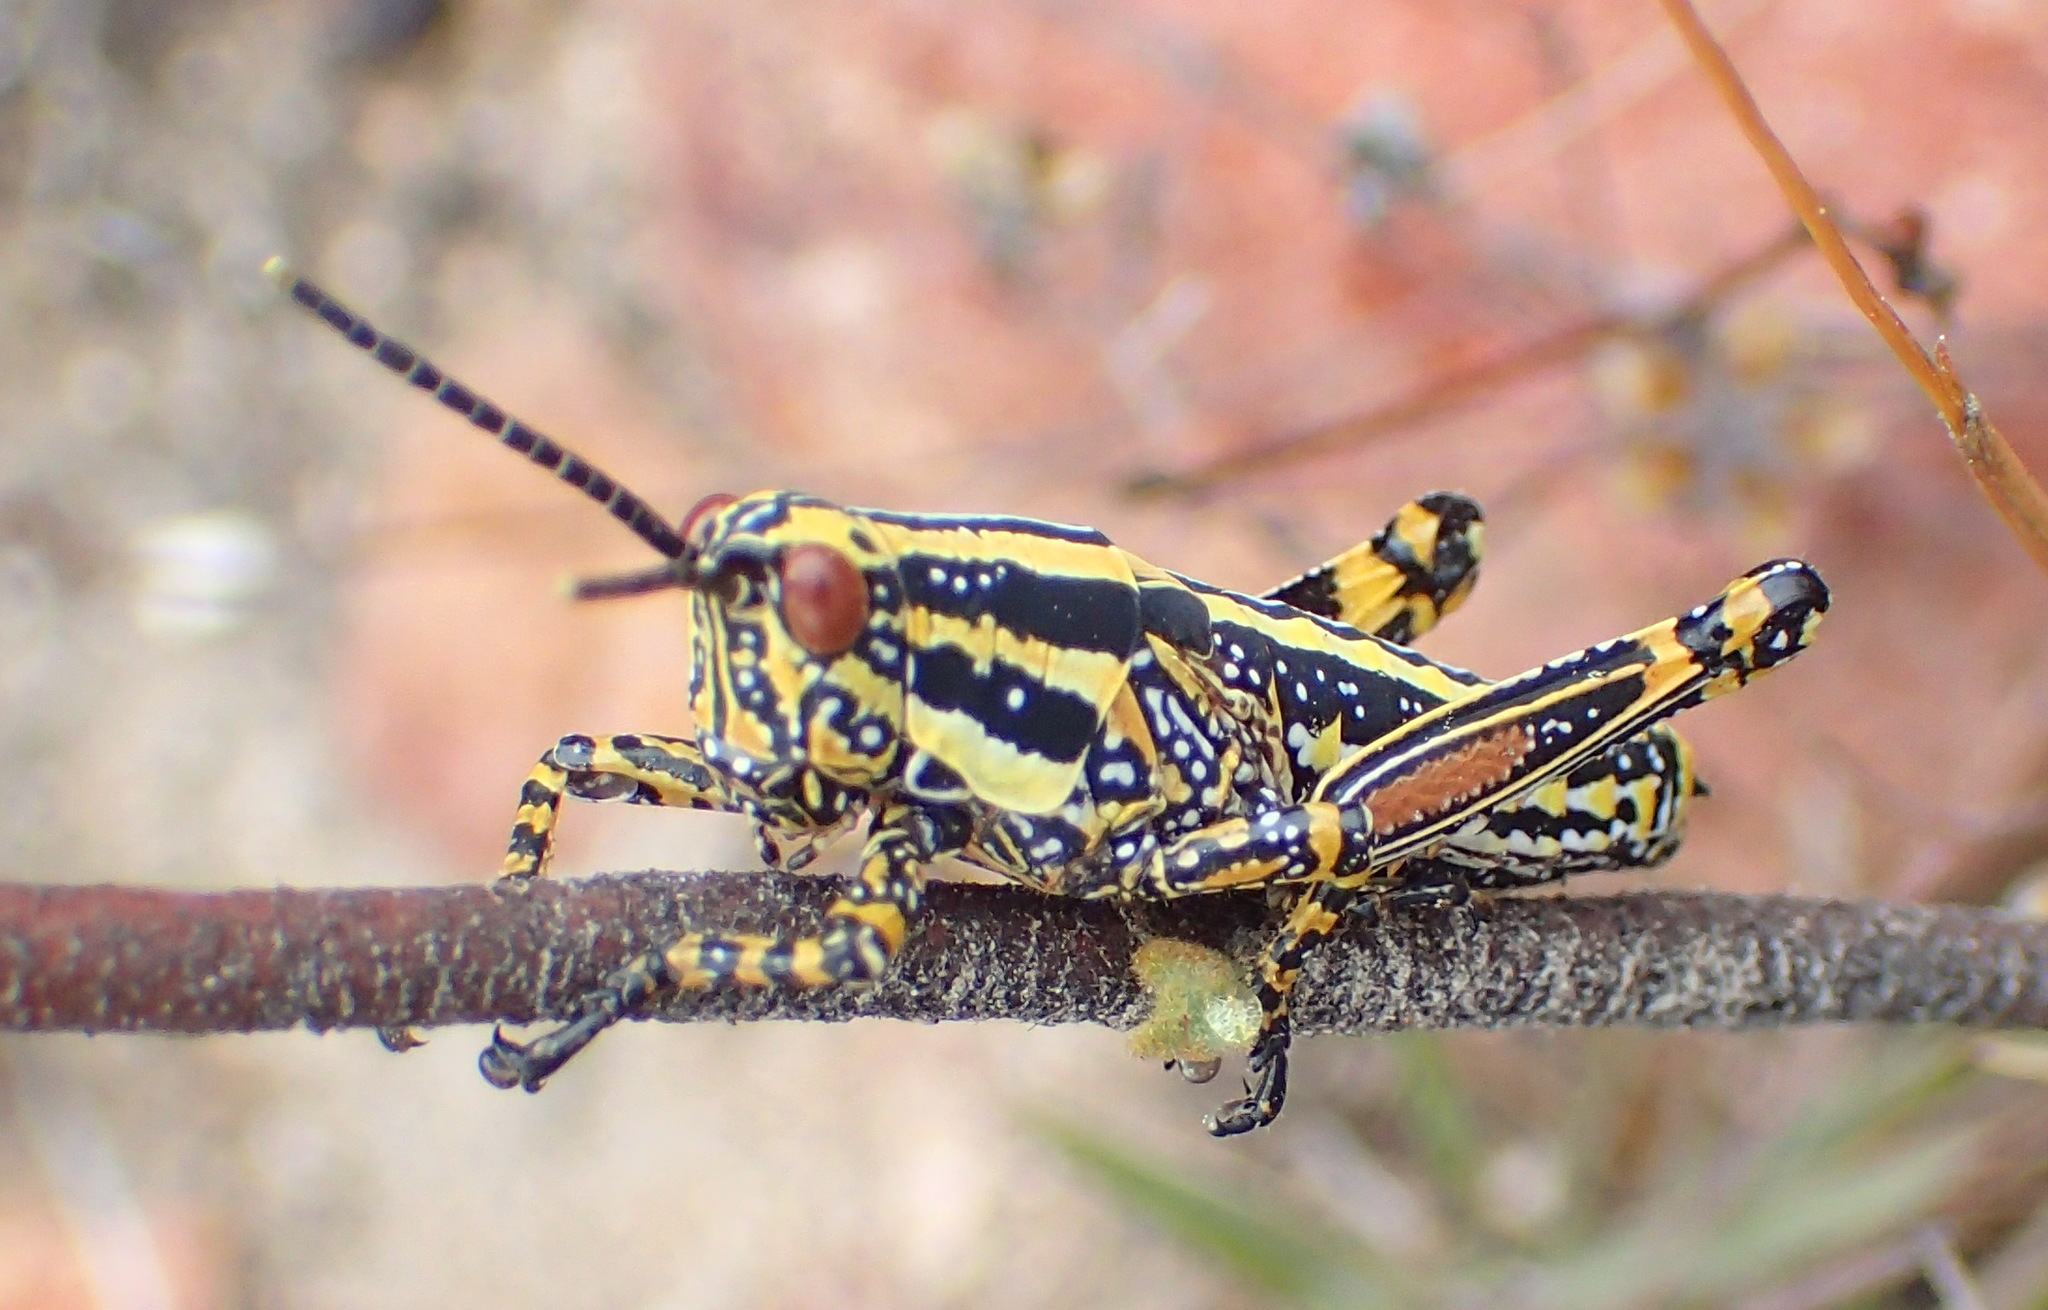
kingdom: Animalia
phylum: Arthropoda
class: Insecta
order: Orthoptera
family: Pyrgomorphidae
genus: Zonocerus
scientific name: Zonocerus elegans
